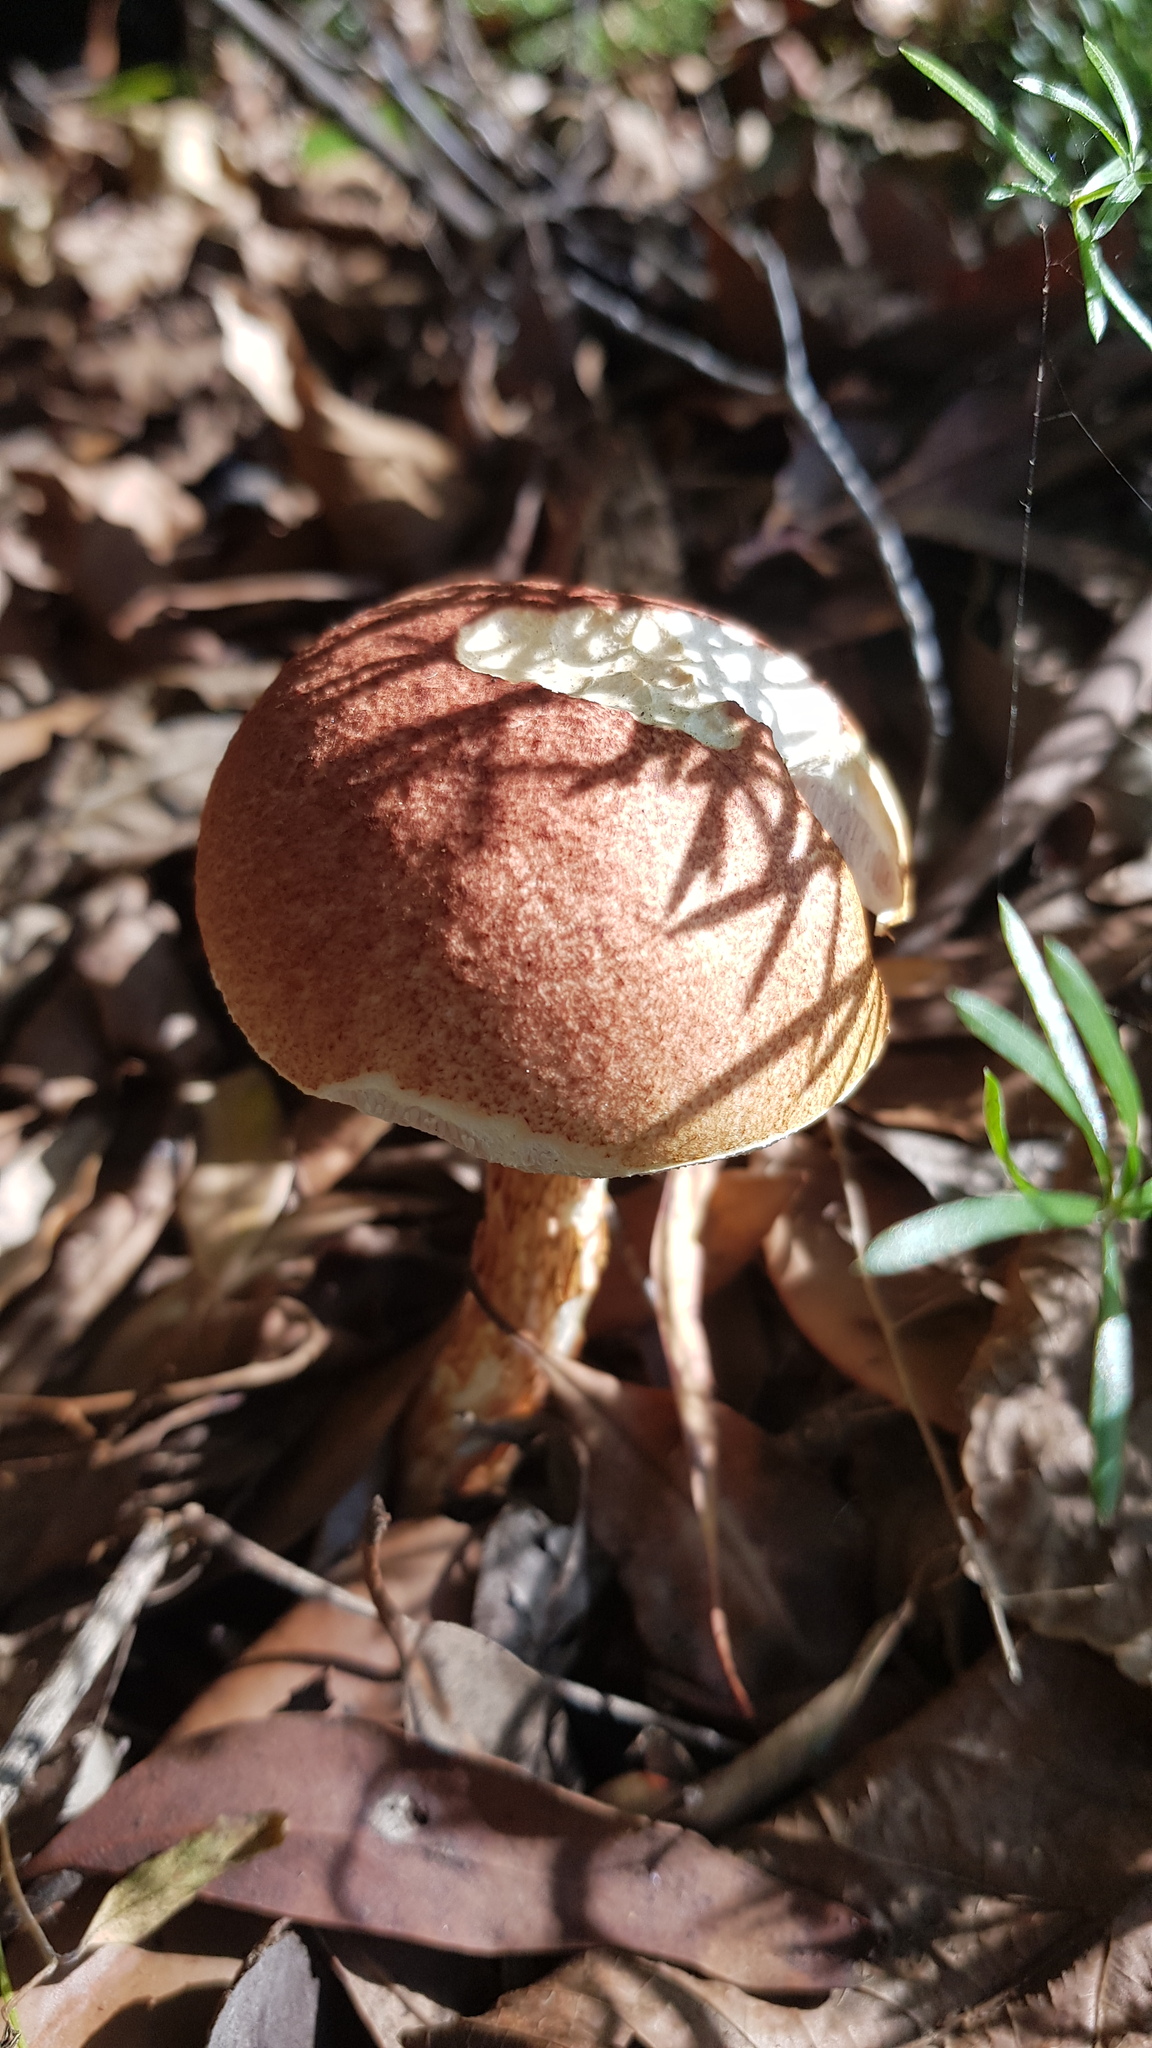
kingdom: Fungi
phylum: Basidiomycota
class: Agaricomycetes
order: Boletales
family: Boletaceae
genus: Austroboletus
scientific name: Austroboletus rarus
